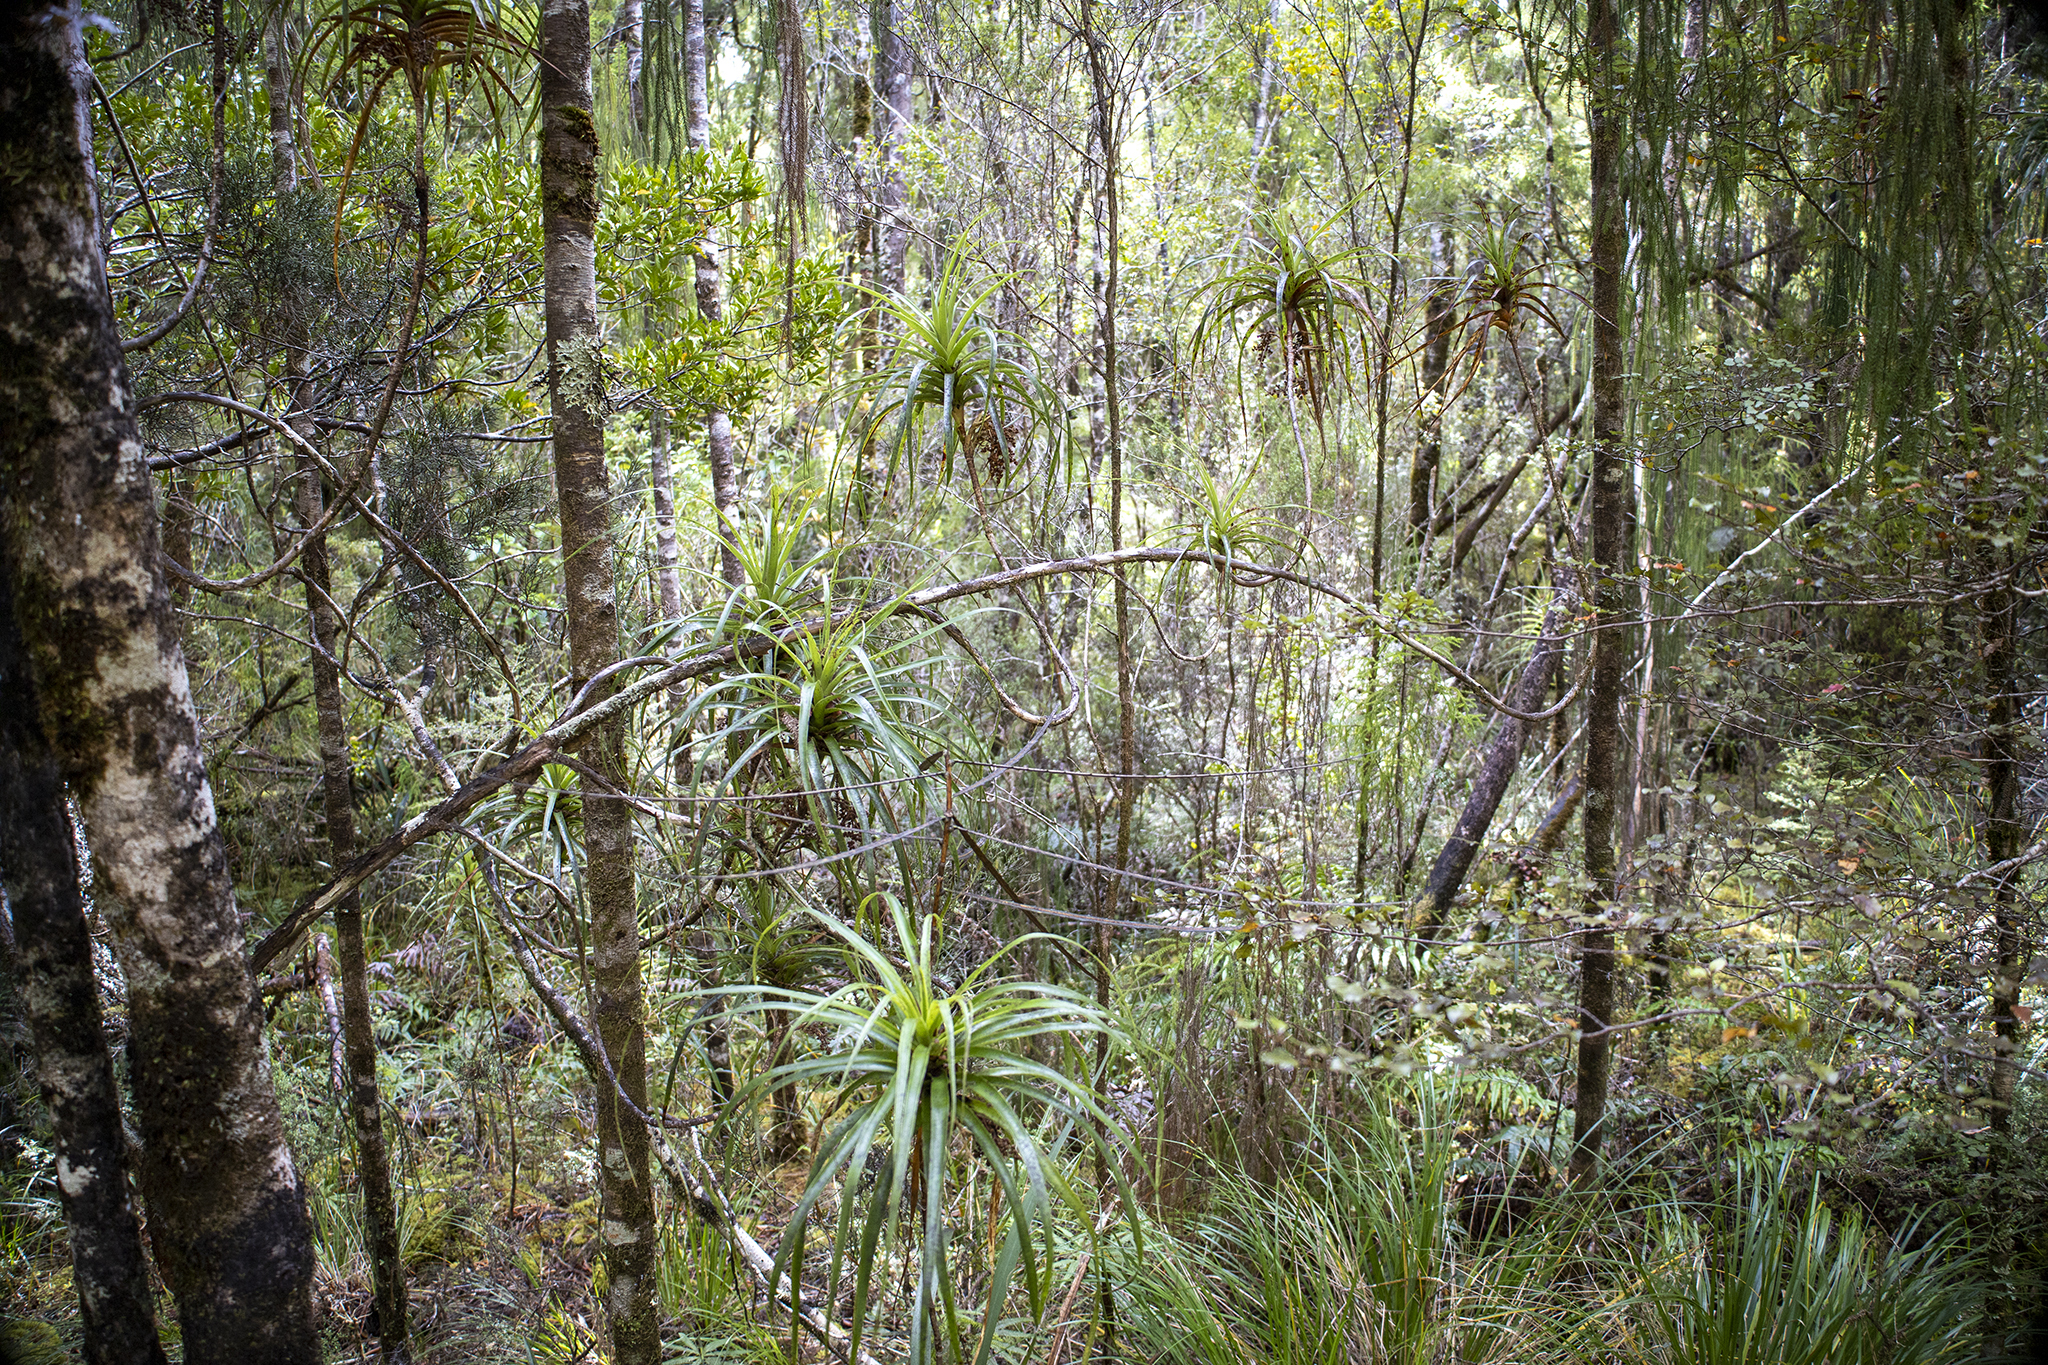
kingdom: Plantae
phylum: Tracheophyta
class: Magnoliopsida
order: Ericales
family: Ericaceae
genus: Dracophyllum
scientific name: Dracophyllum townsonii
